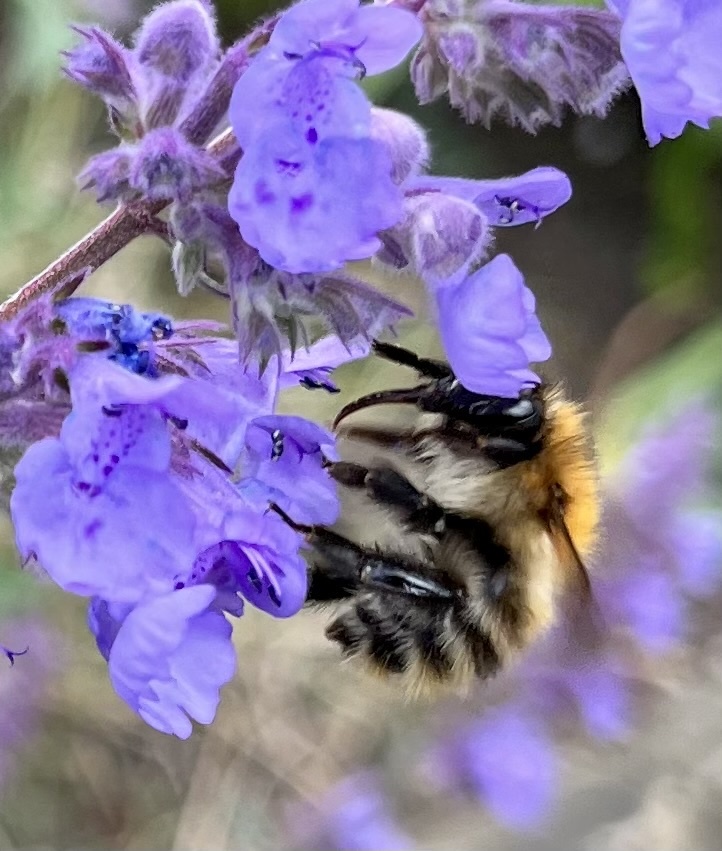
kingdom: Animalia
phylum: Arthropoda
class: Insecta
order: Hymenoptera
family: Apidae
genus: Bombus
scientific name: Bombus pascuorum
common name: Common carder bee
